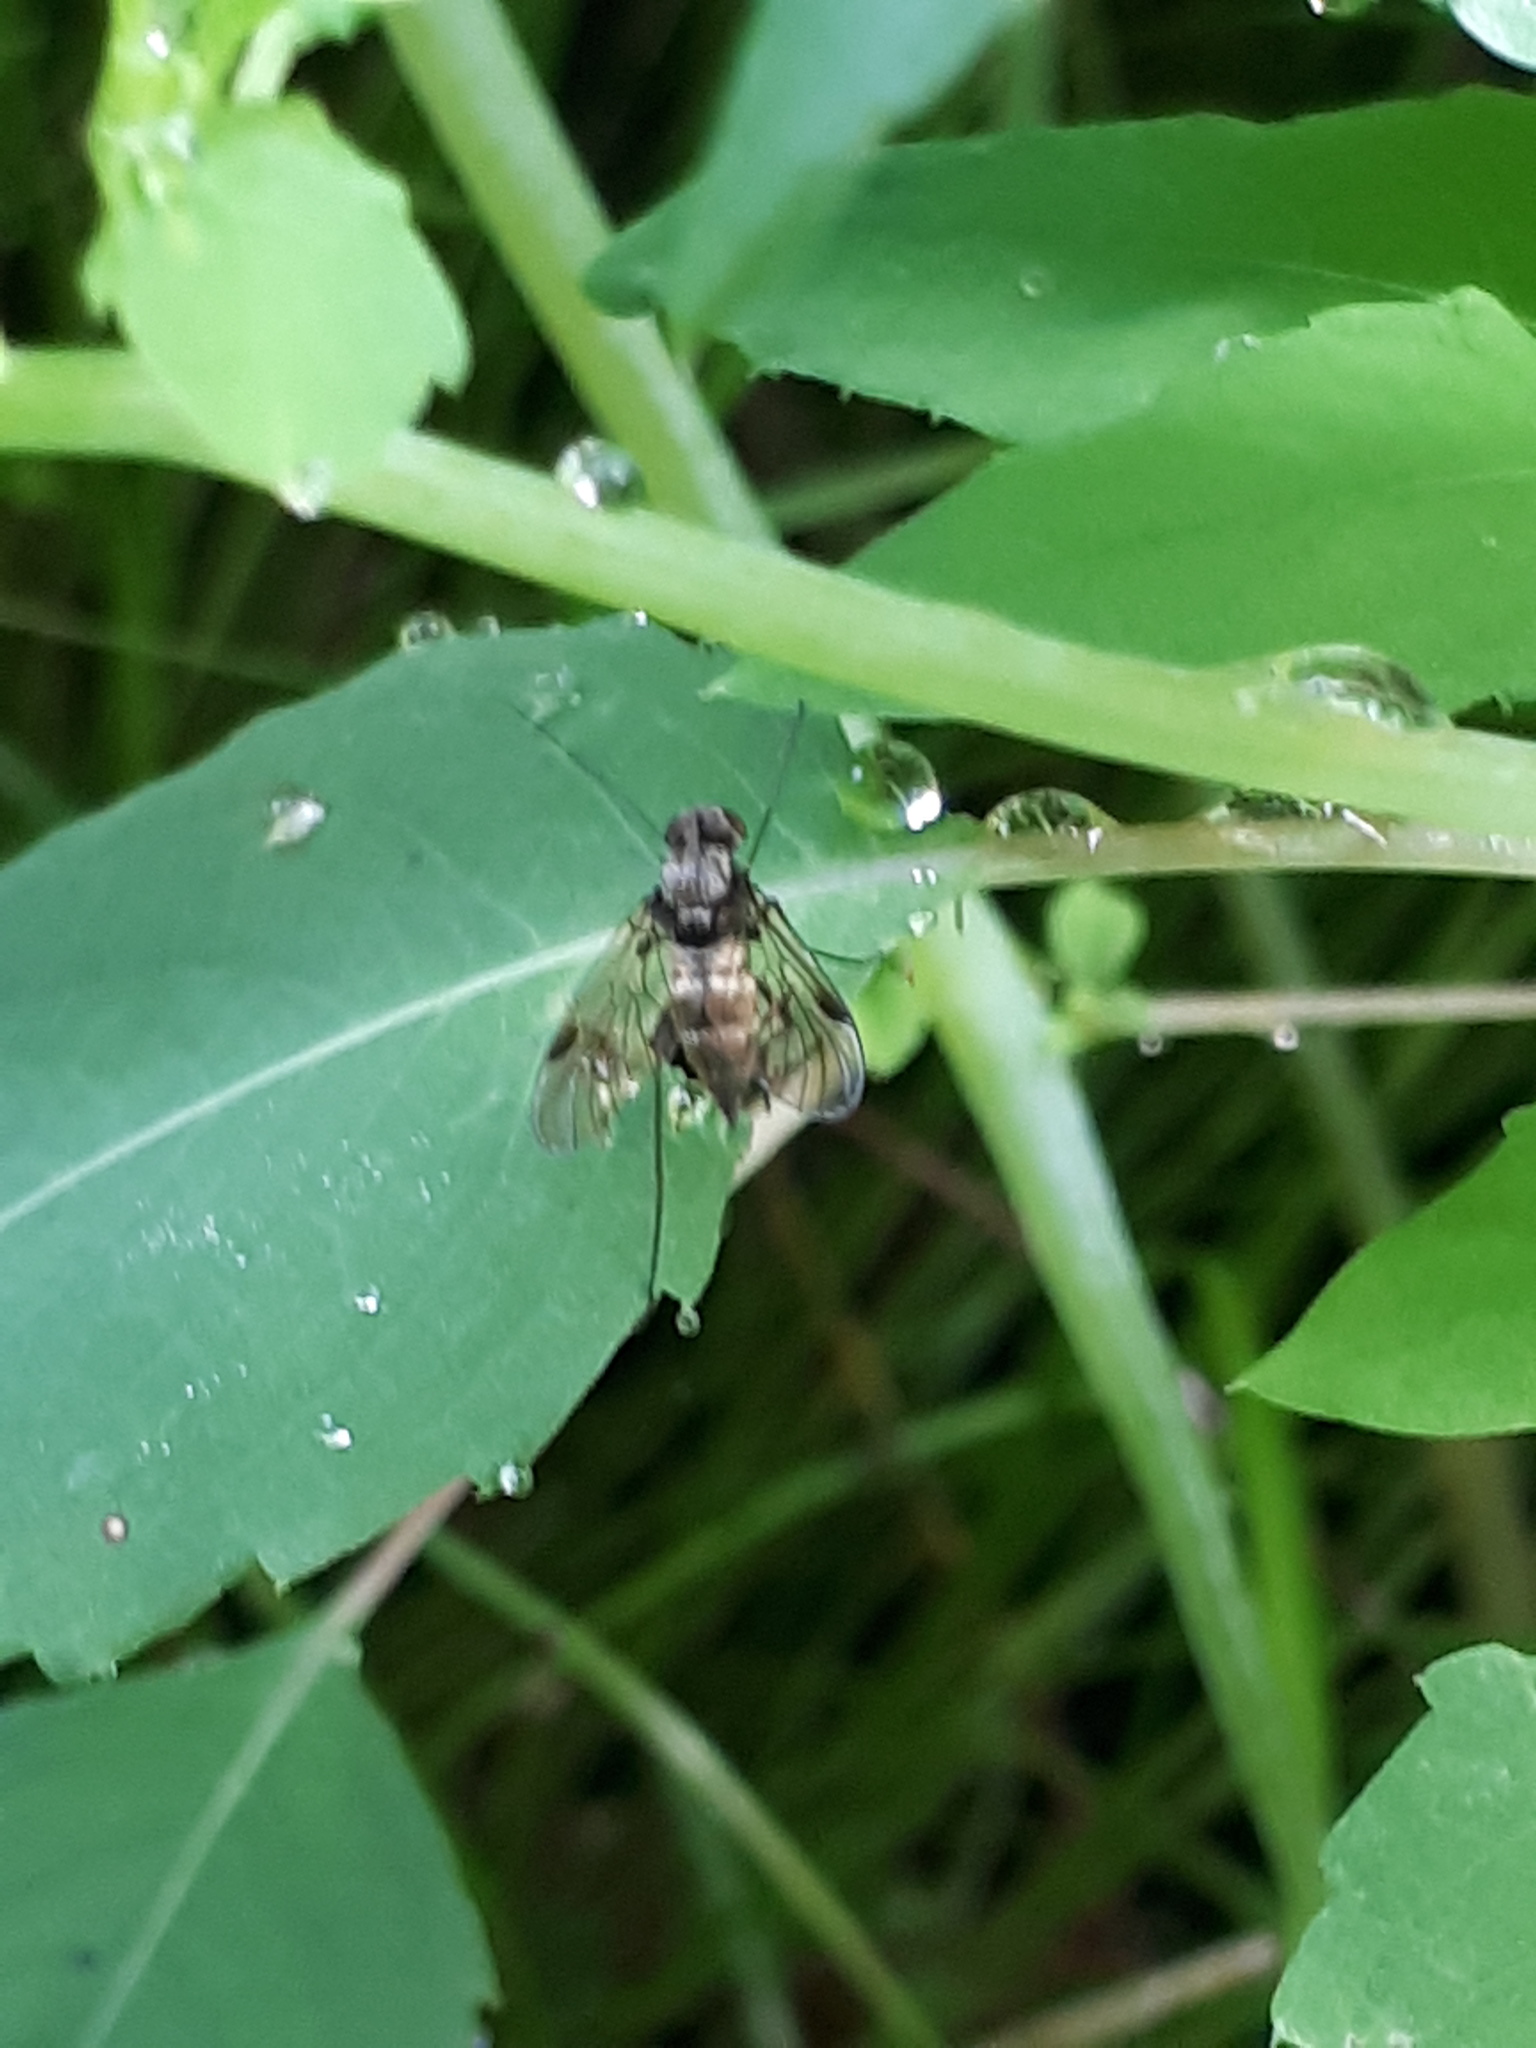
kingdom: Animalia
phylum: Arthropoda
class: Insecta
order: Diptera
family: Rhagionidae
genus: Chrysopilus
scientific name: Chrysopilus cristatus
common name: Black snipefly
